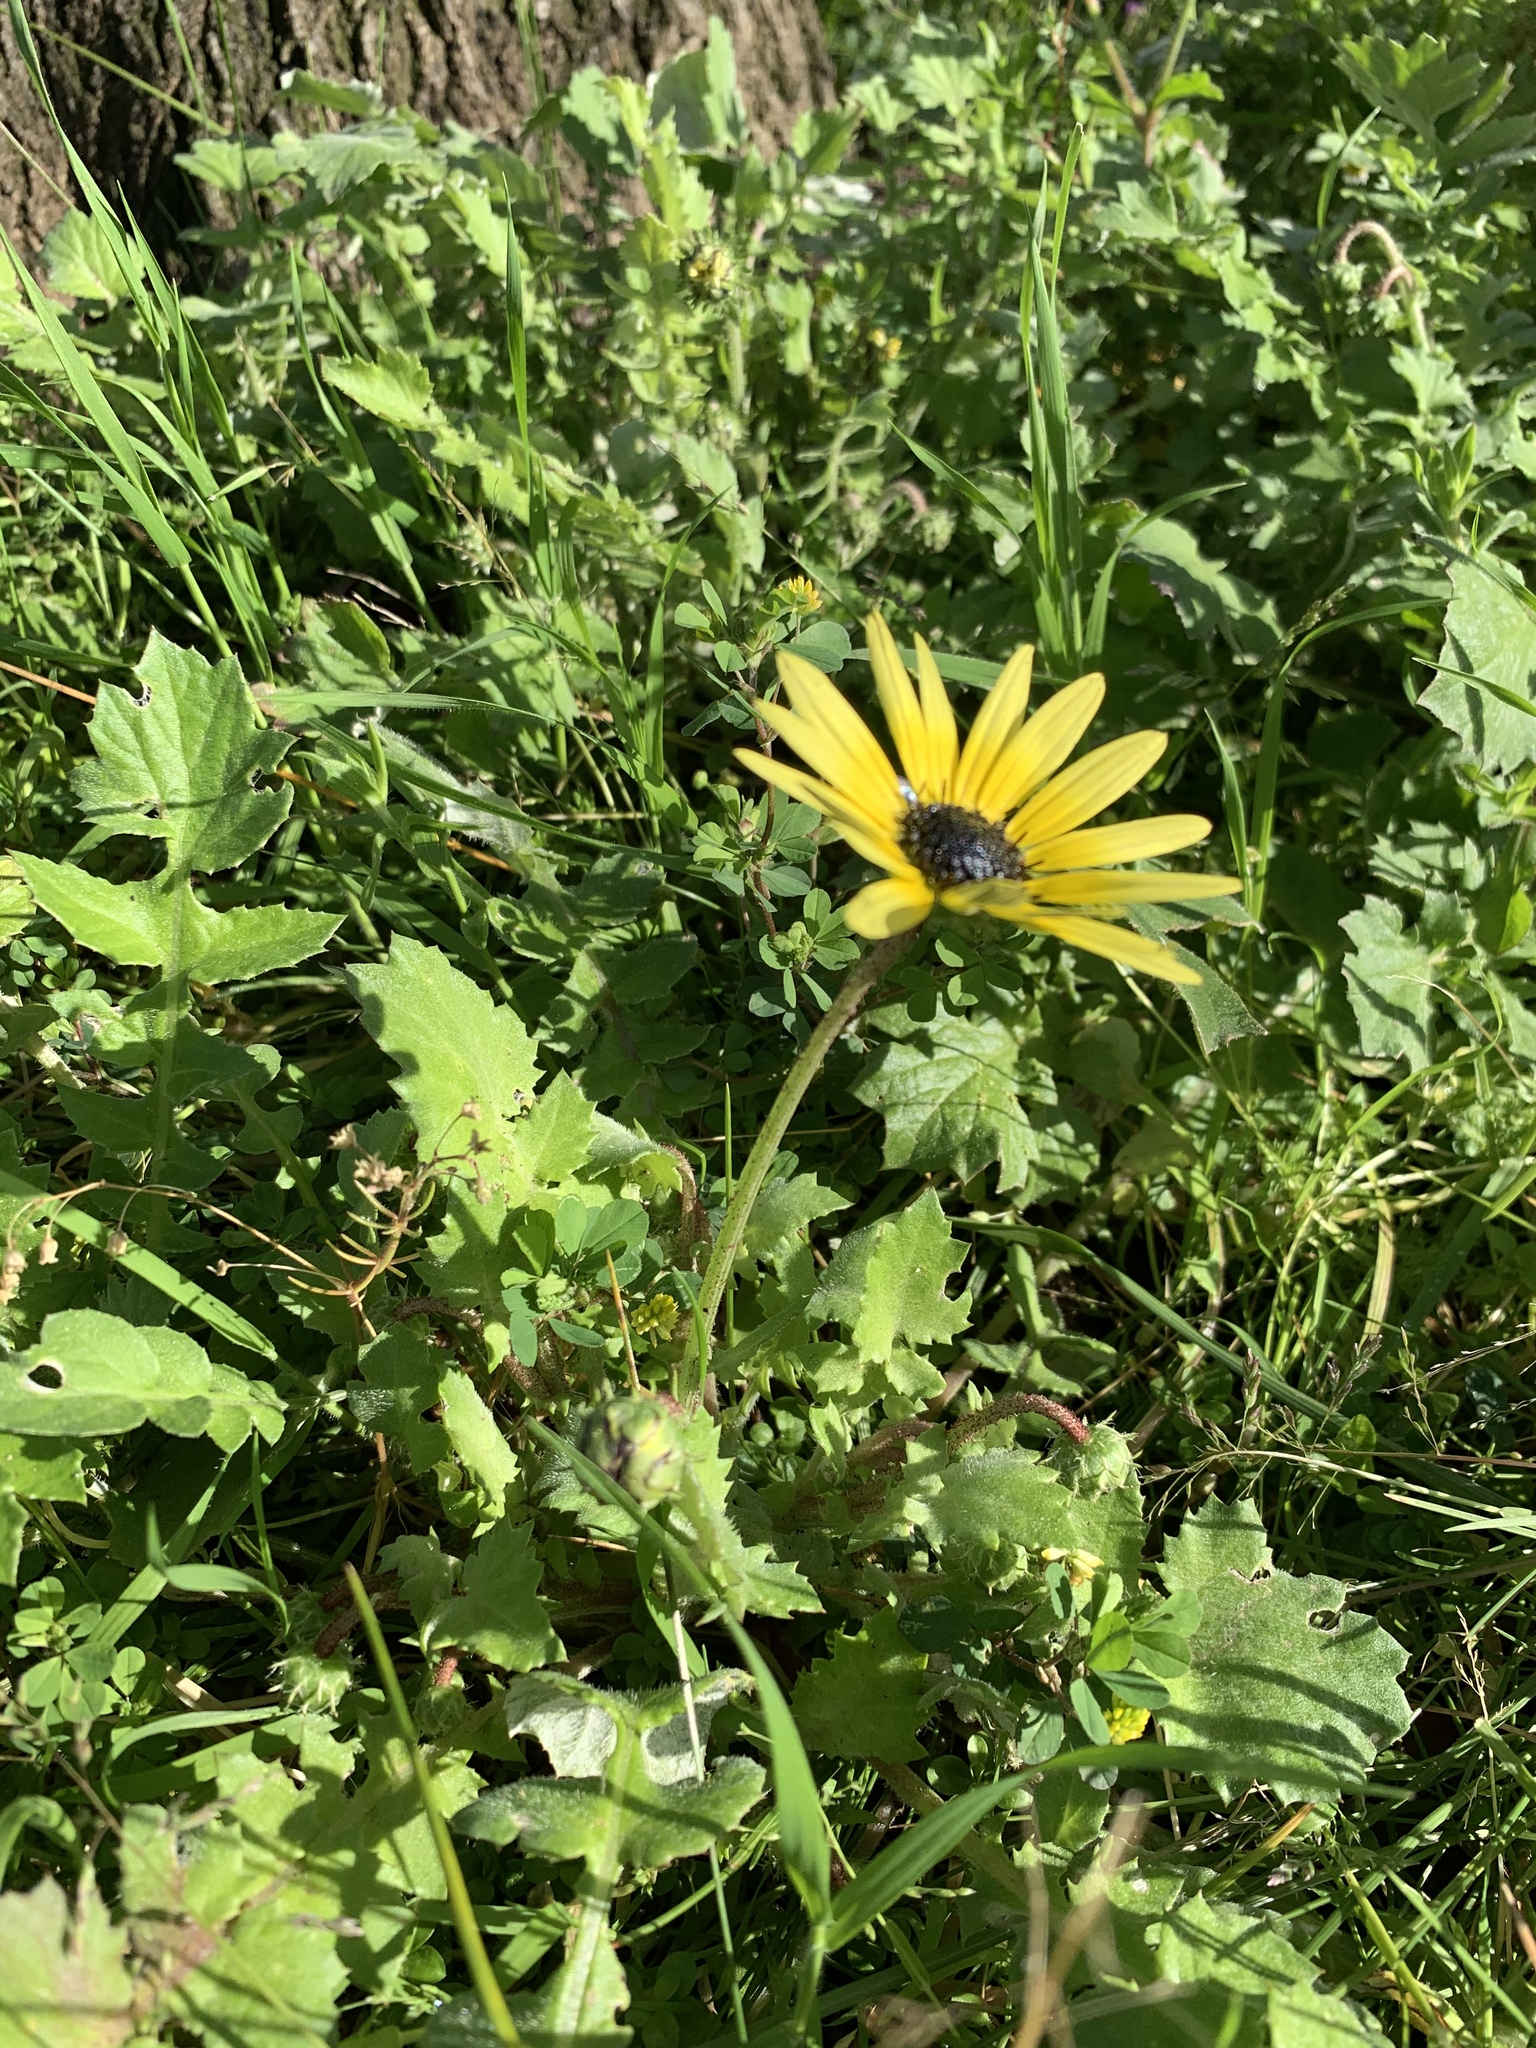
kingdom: Plantae
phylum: Tracheophyta
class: Magnoliopsida
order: Asterales
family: Asteraceae
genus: Arctotheca
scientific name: Arctotheca calendula
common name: Capeweed
